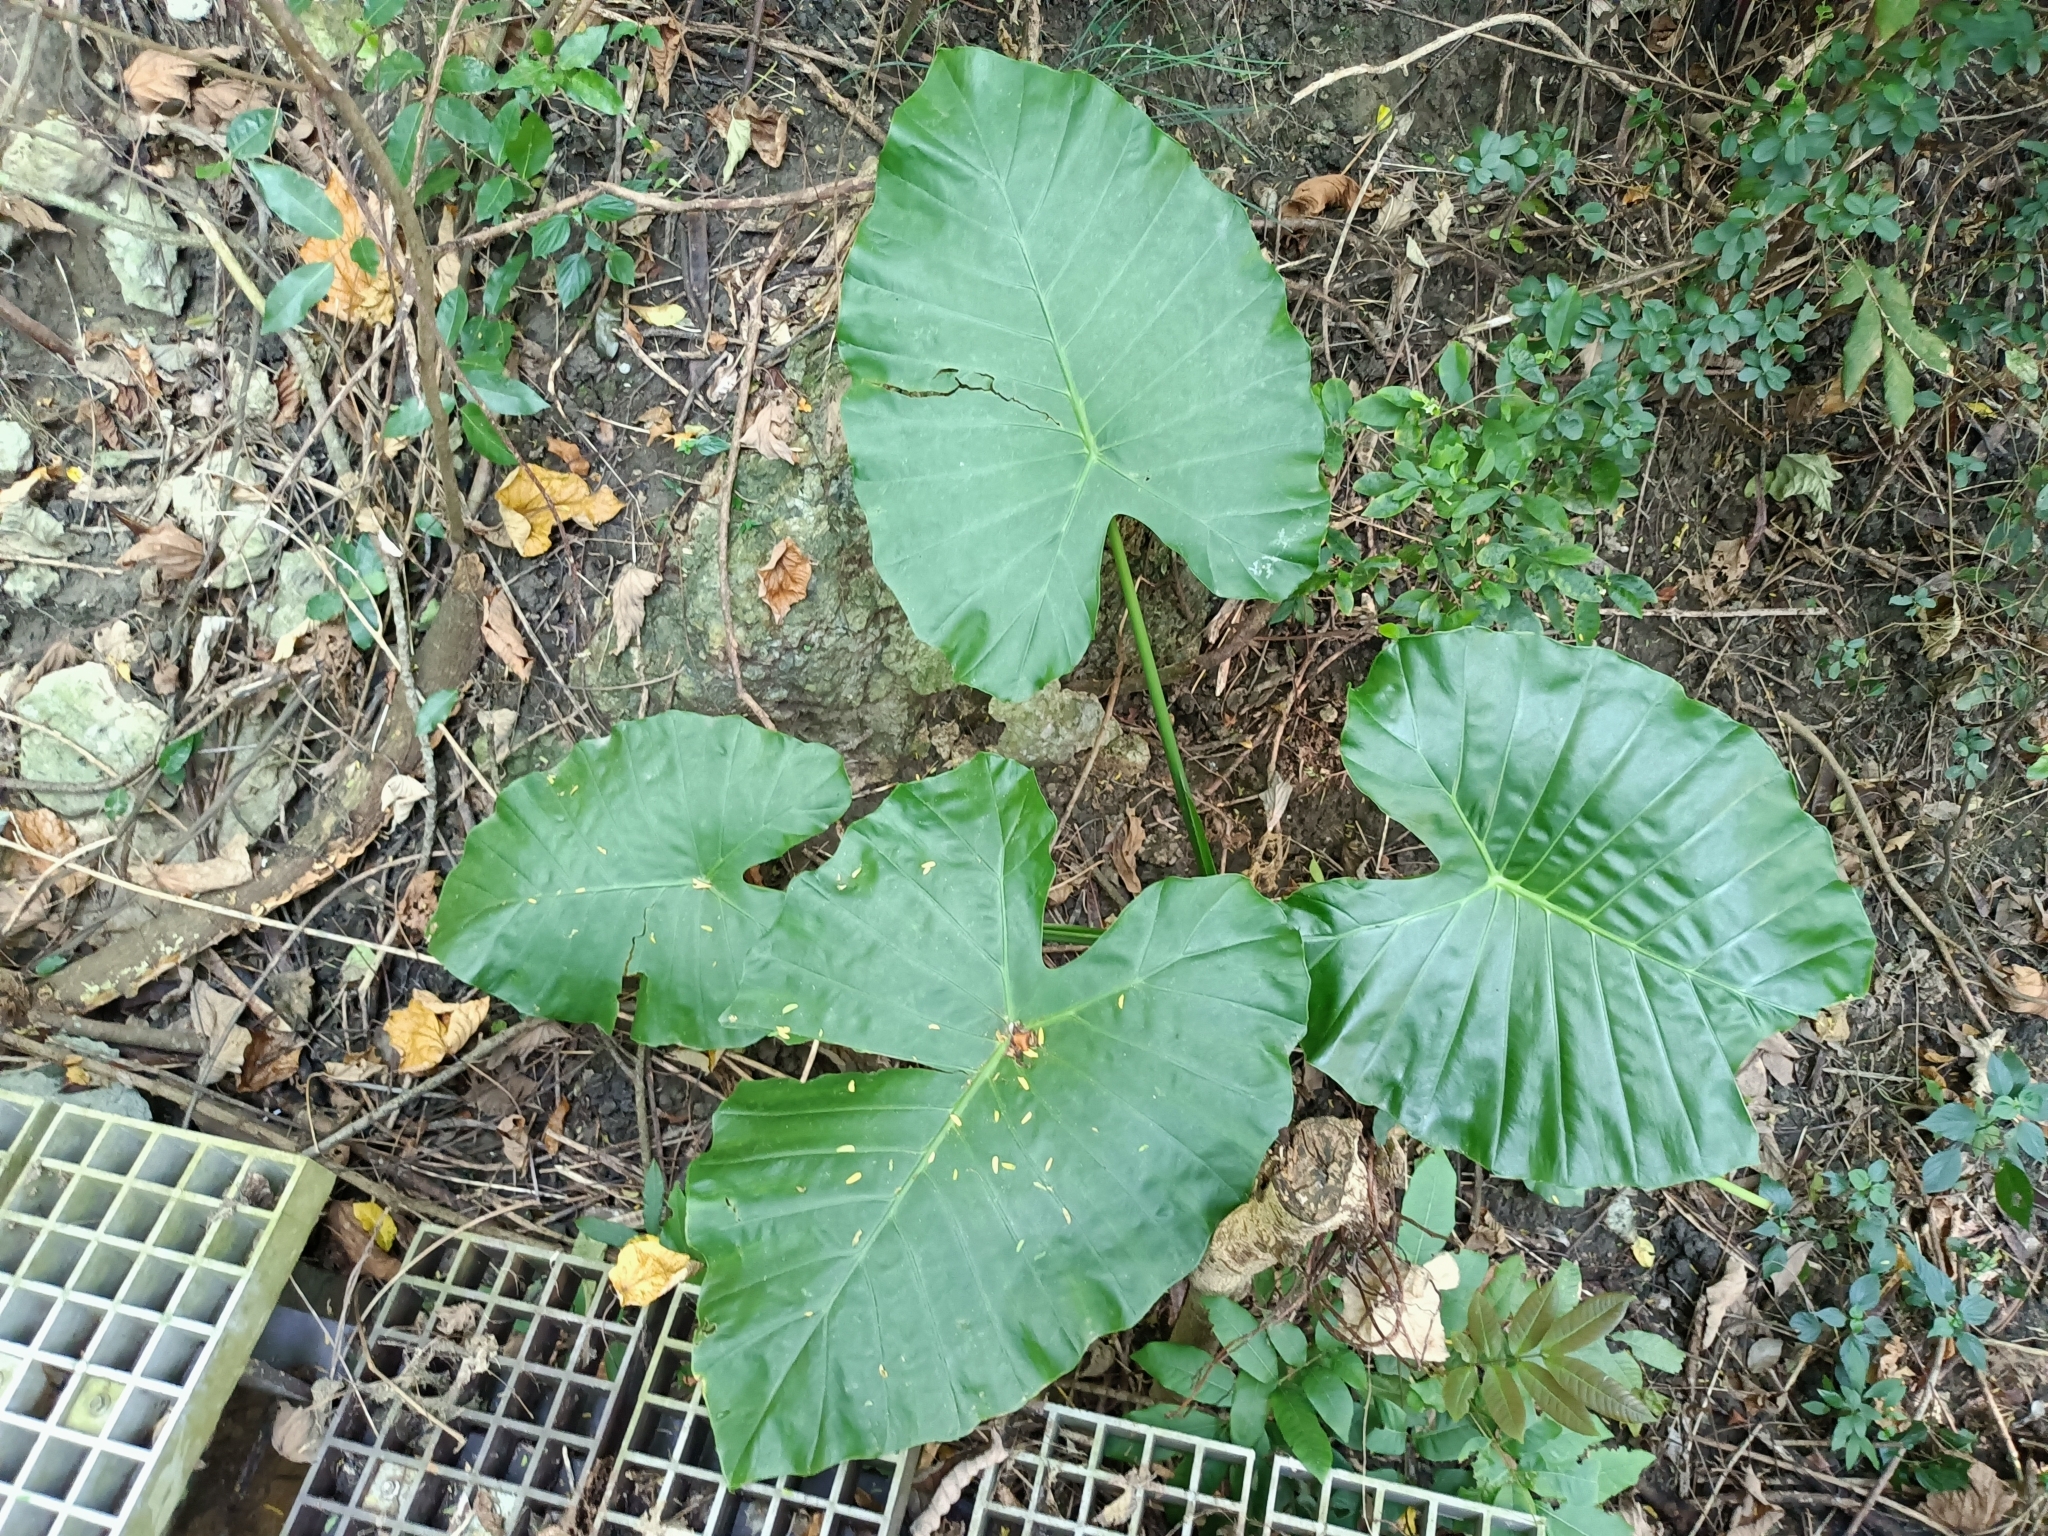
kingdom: Plantae
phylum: Tracheophyta
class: Liliopsida
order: Alismatales
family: Araceae
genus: Alocasia
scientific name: Alocasia odora
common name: Asian taro
